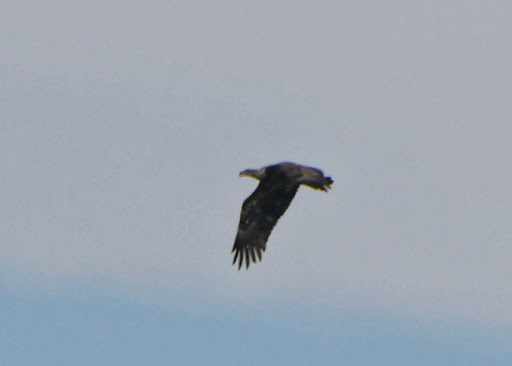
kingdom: Animalia
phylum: Chordata
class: Aves
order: Accipitriformes
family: Accipitridae
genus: Haliaeetus
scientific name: Haliaeetus leucocephalus
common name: Bald eagle
